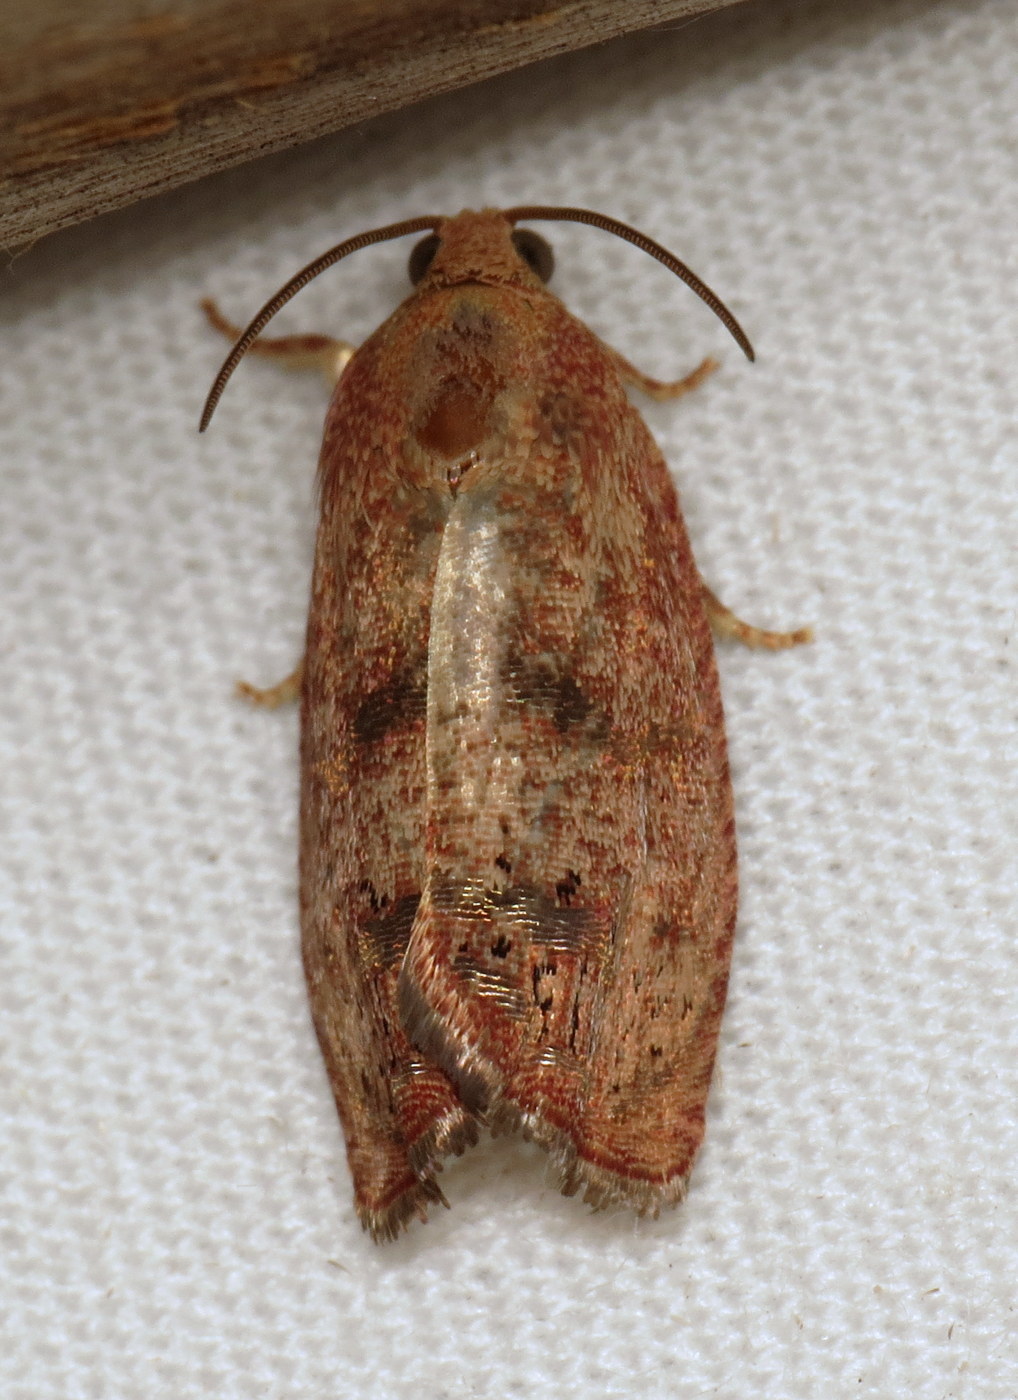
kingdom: Animalia
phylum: Arthropoda
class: Insecta
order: Lepidoptera
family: Tortricidae
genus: Cydia
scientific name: Cydia latiferreana
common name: Filbertworm moth
